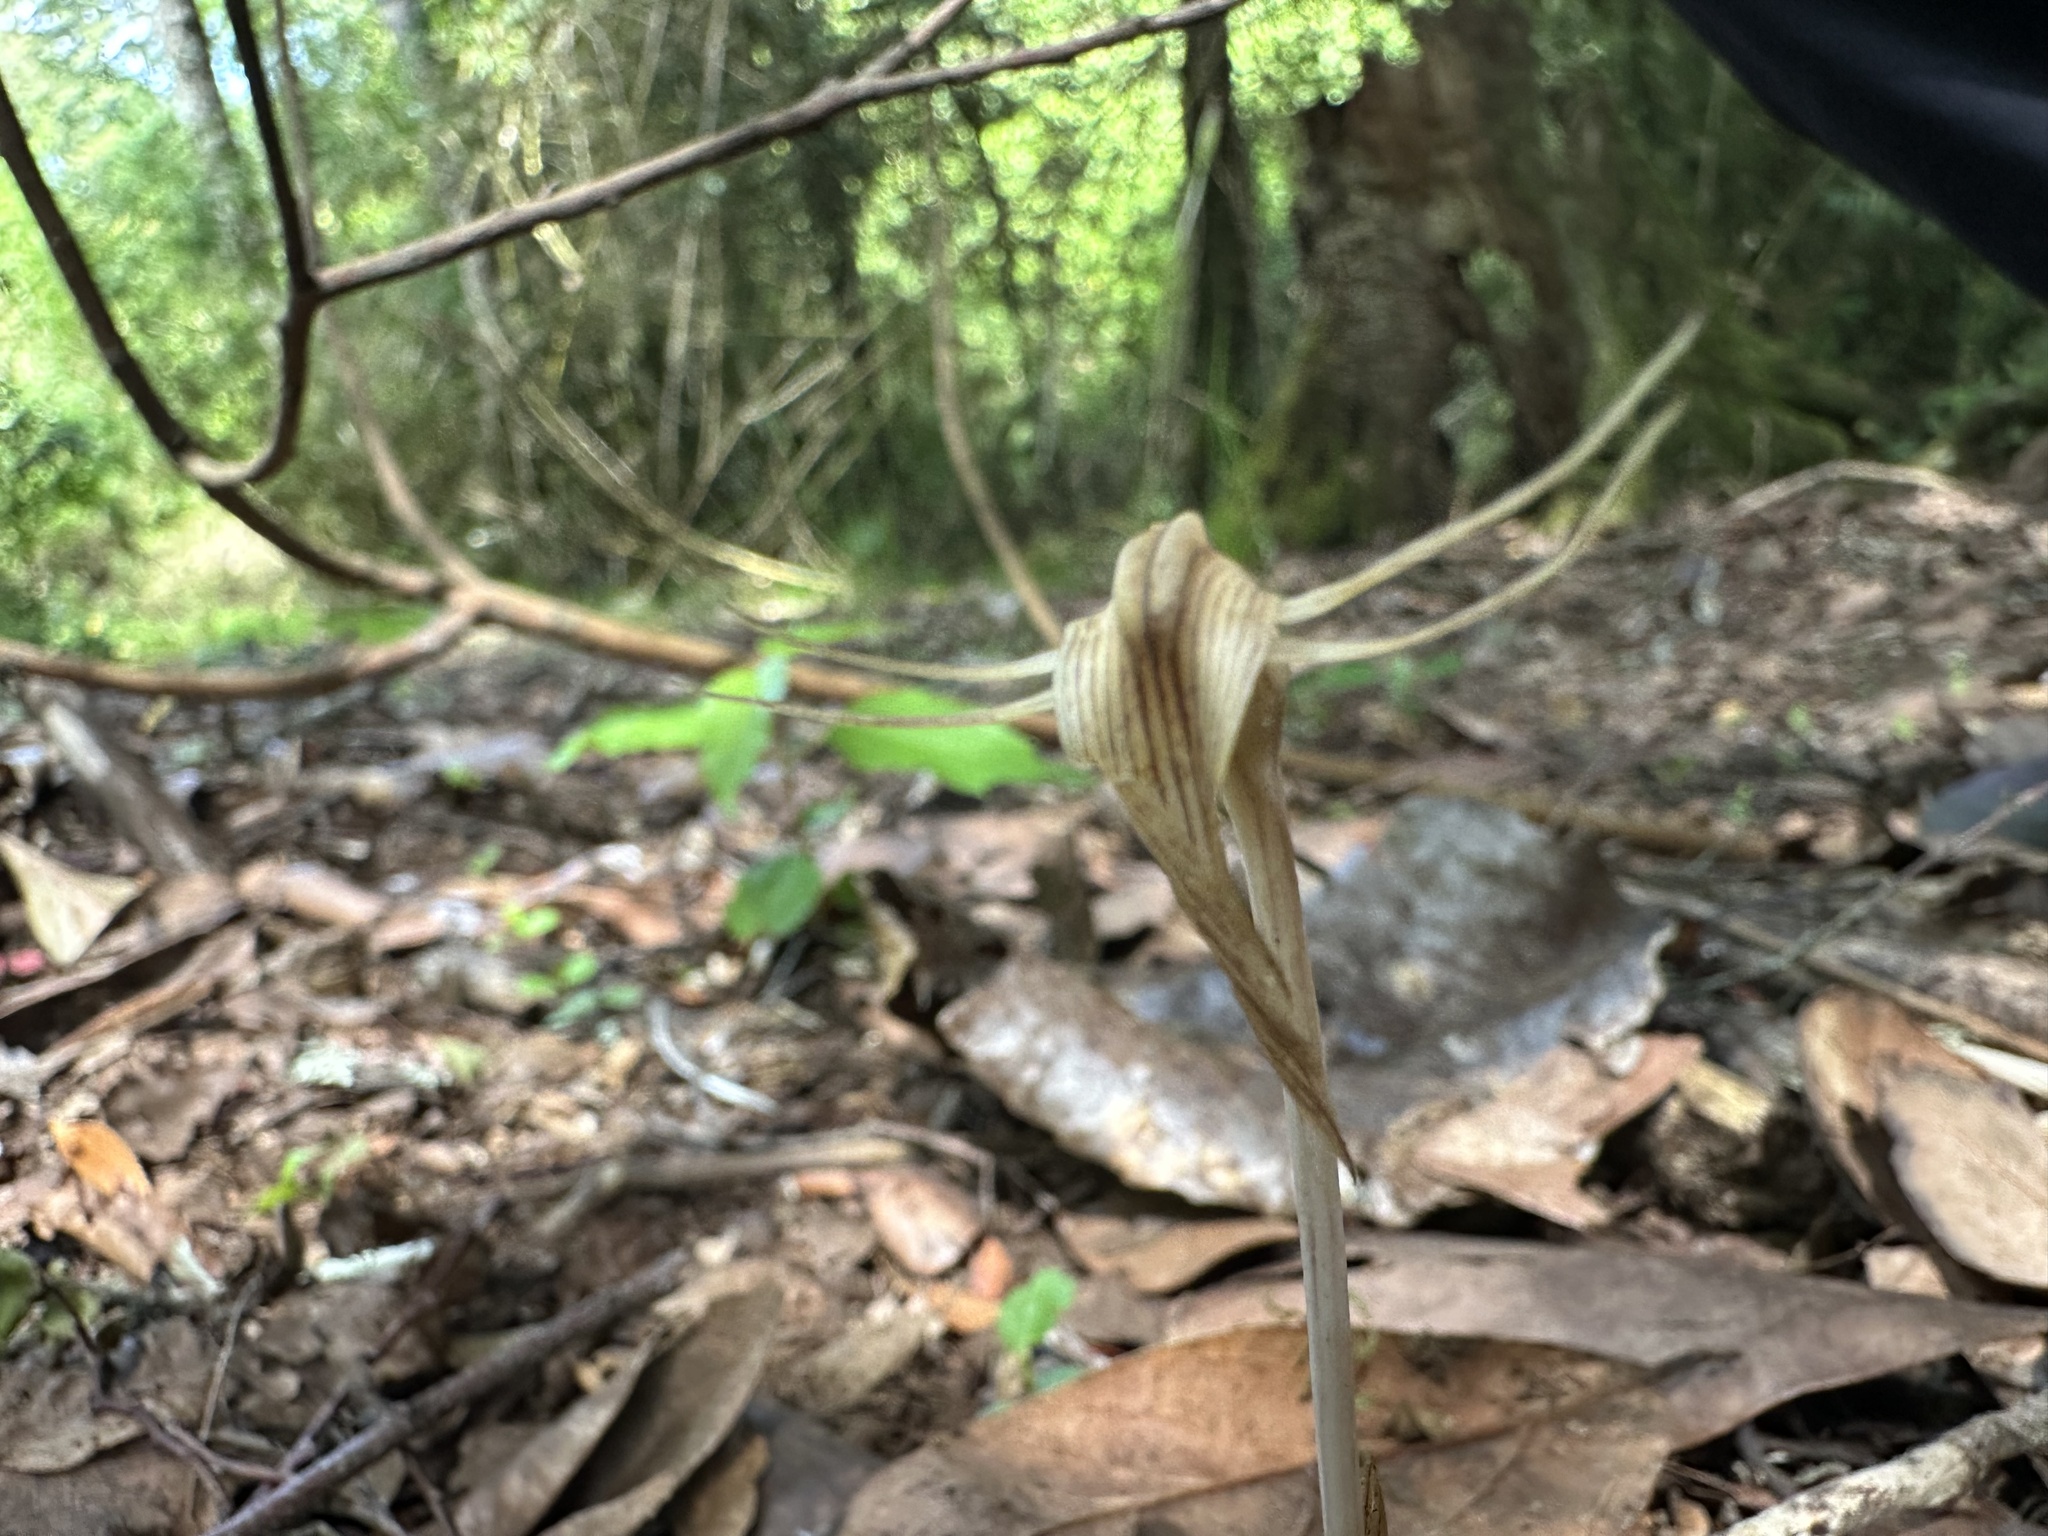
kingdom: Plantae
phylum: Tracheophyta
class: Liliopsida
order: Liliales
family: Corsiaceae
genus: Arachnitis
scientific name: Arachnitis uniflora
